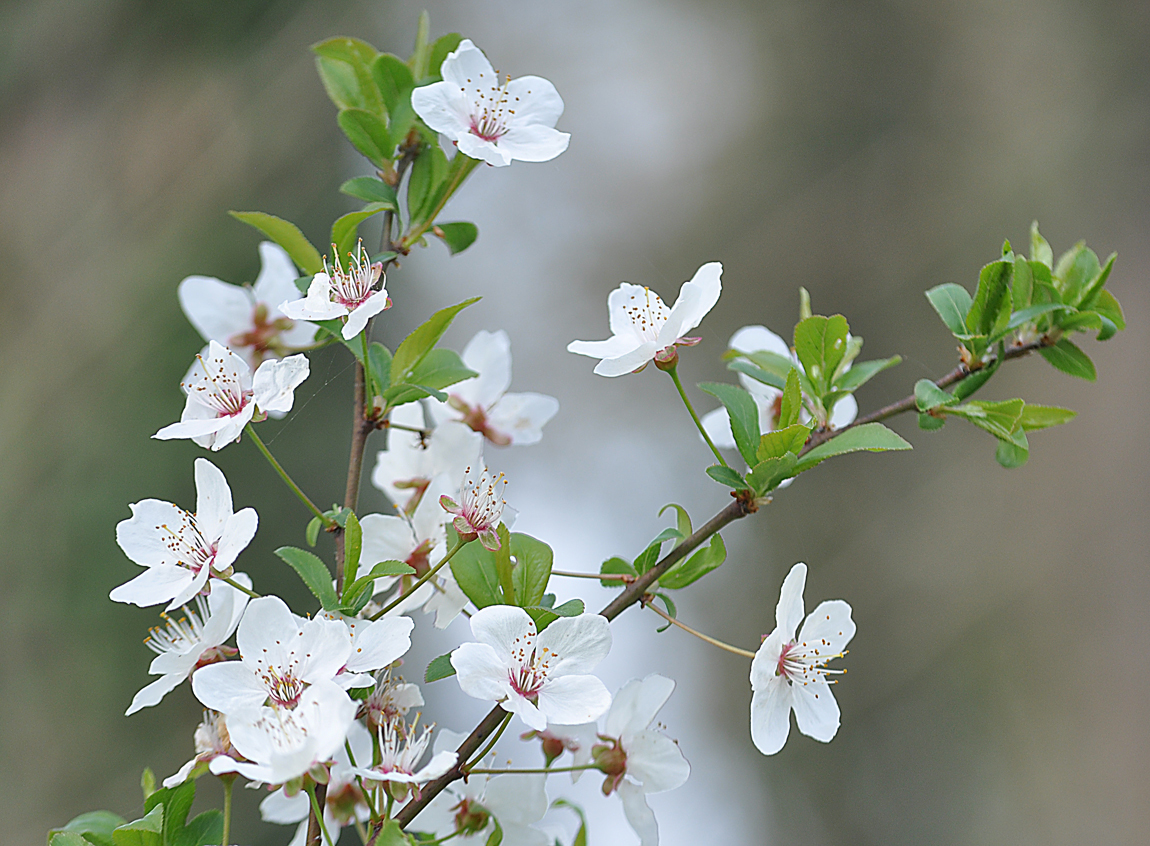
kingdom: Plantae
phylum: Tracheophyta
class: Magnoliopsida
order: Rosales
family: Rosaceae
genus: Prunus
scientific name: Prunus cerasifera
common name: Cherry plum
